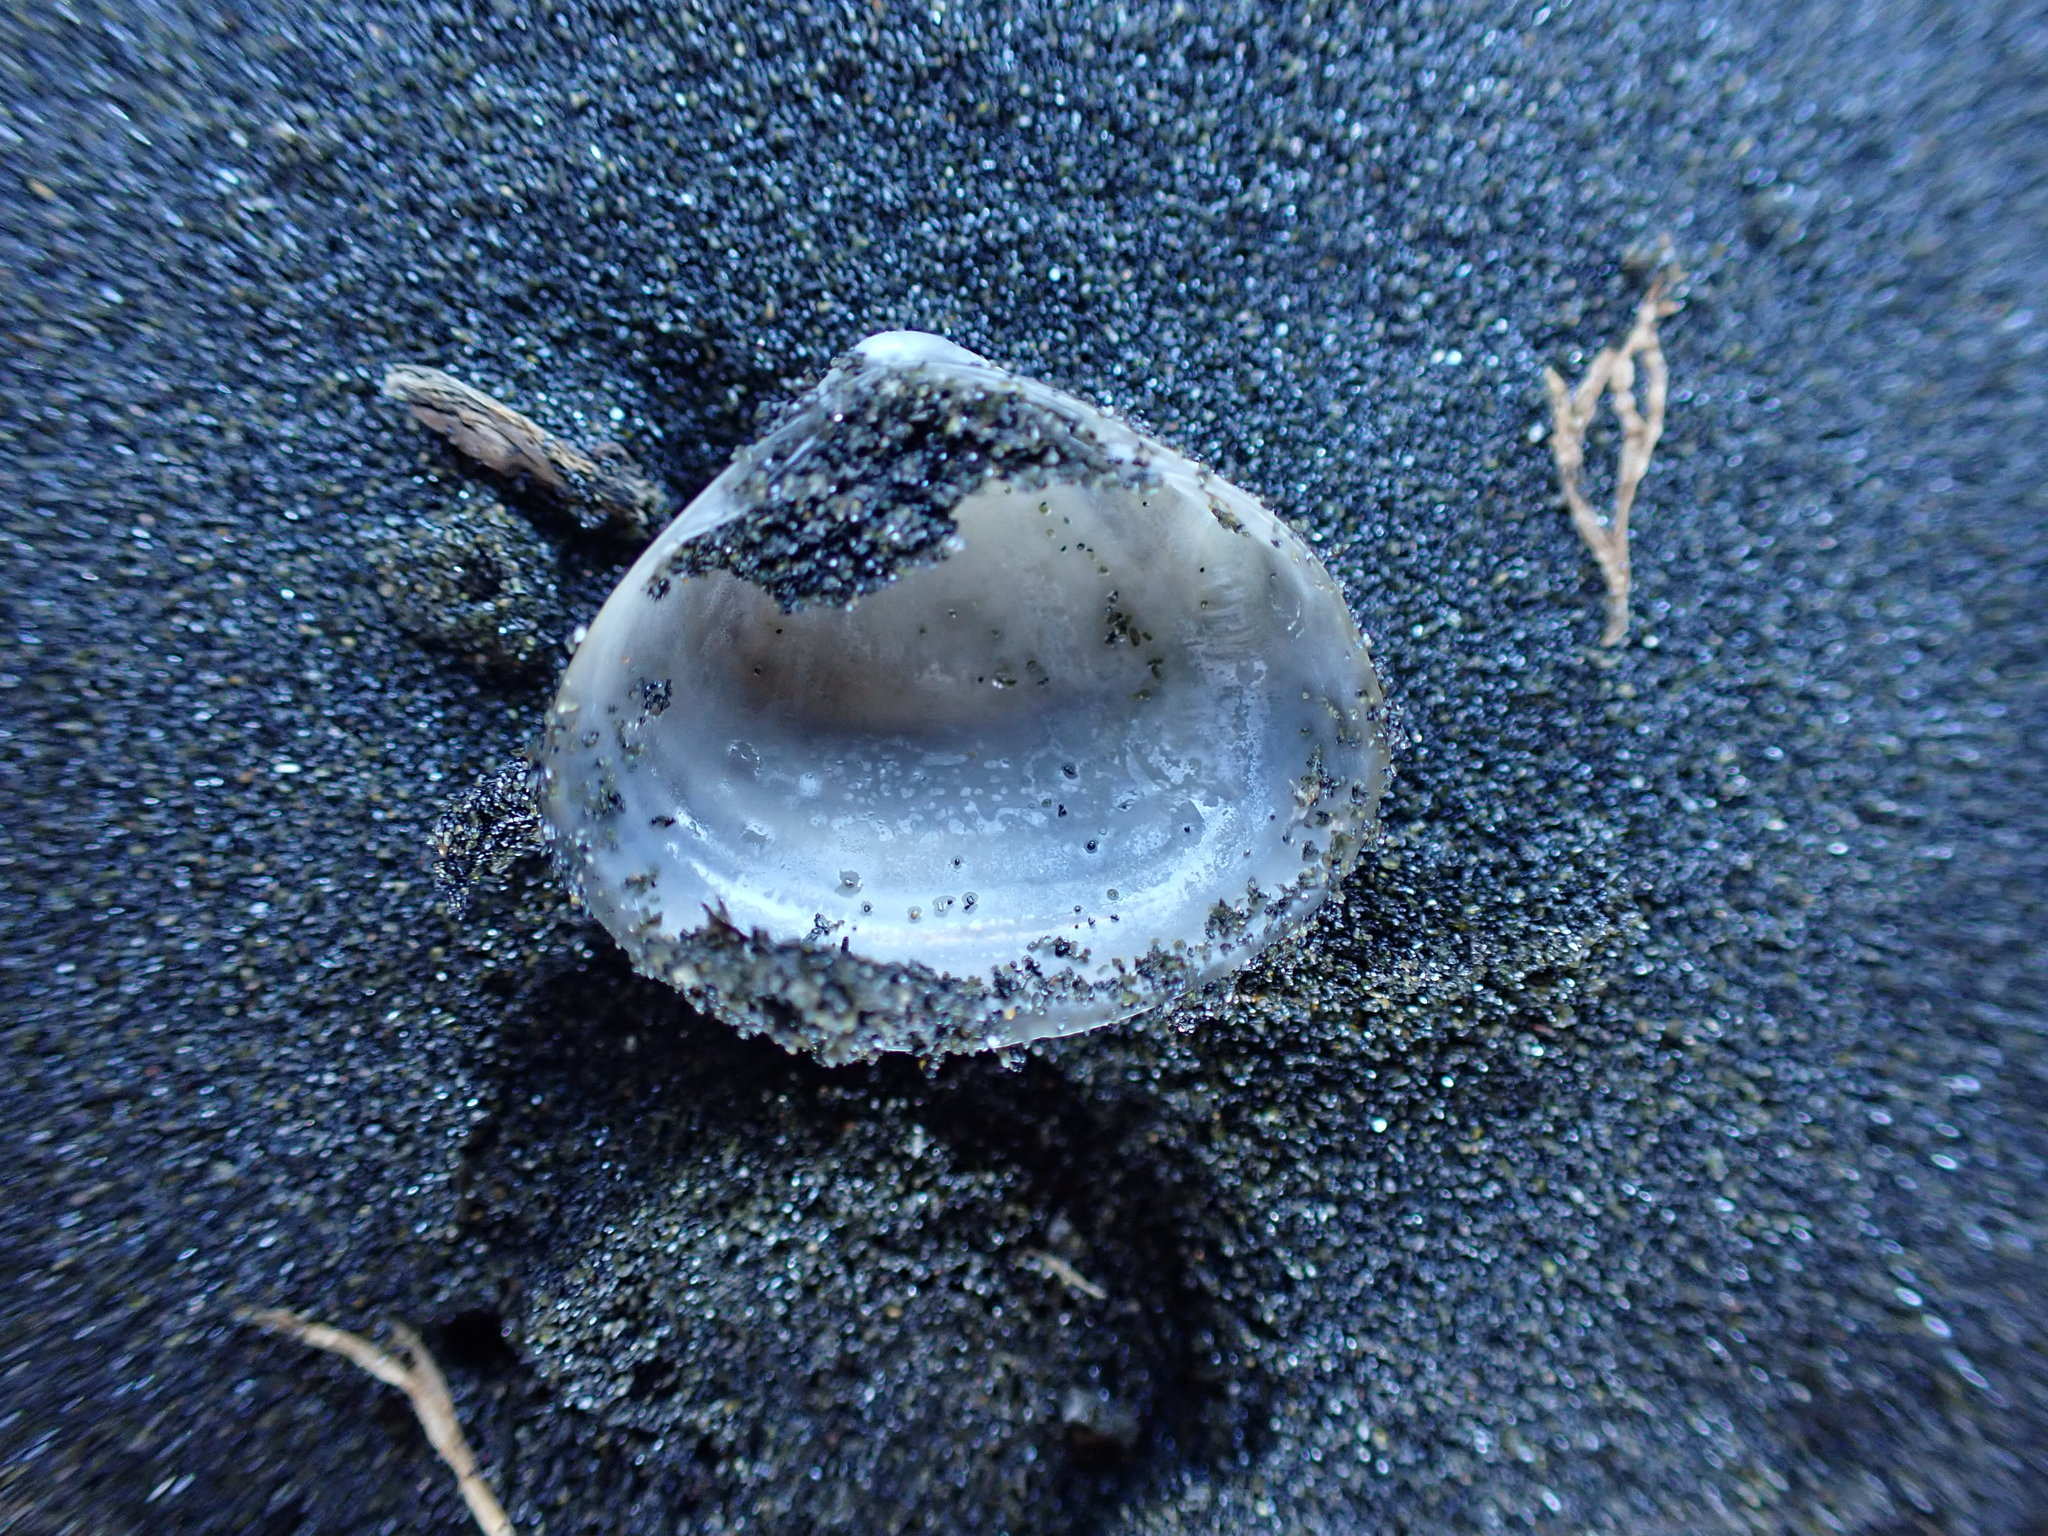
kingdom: Animalia
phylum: Mollusca
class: Bivalvia
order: Venerida
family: Mactridae
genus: Maorimactra
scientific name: Maorimactra ordinaria
